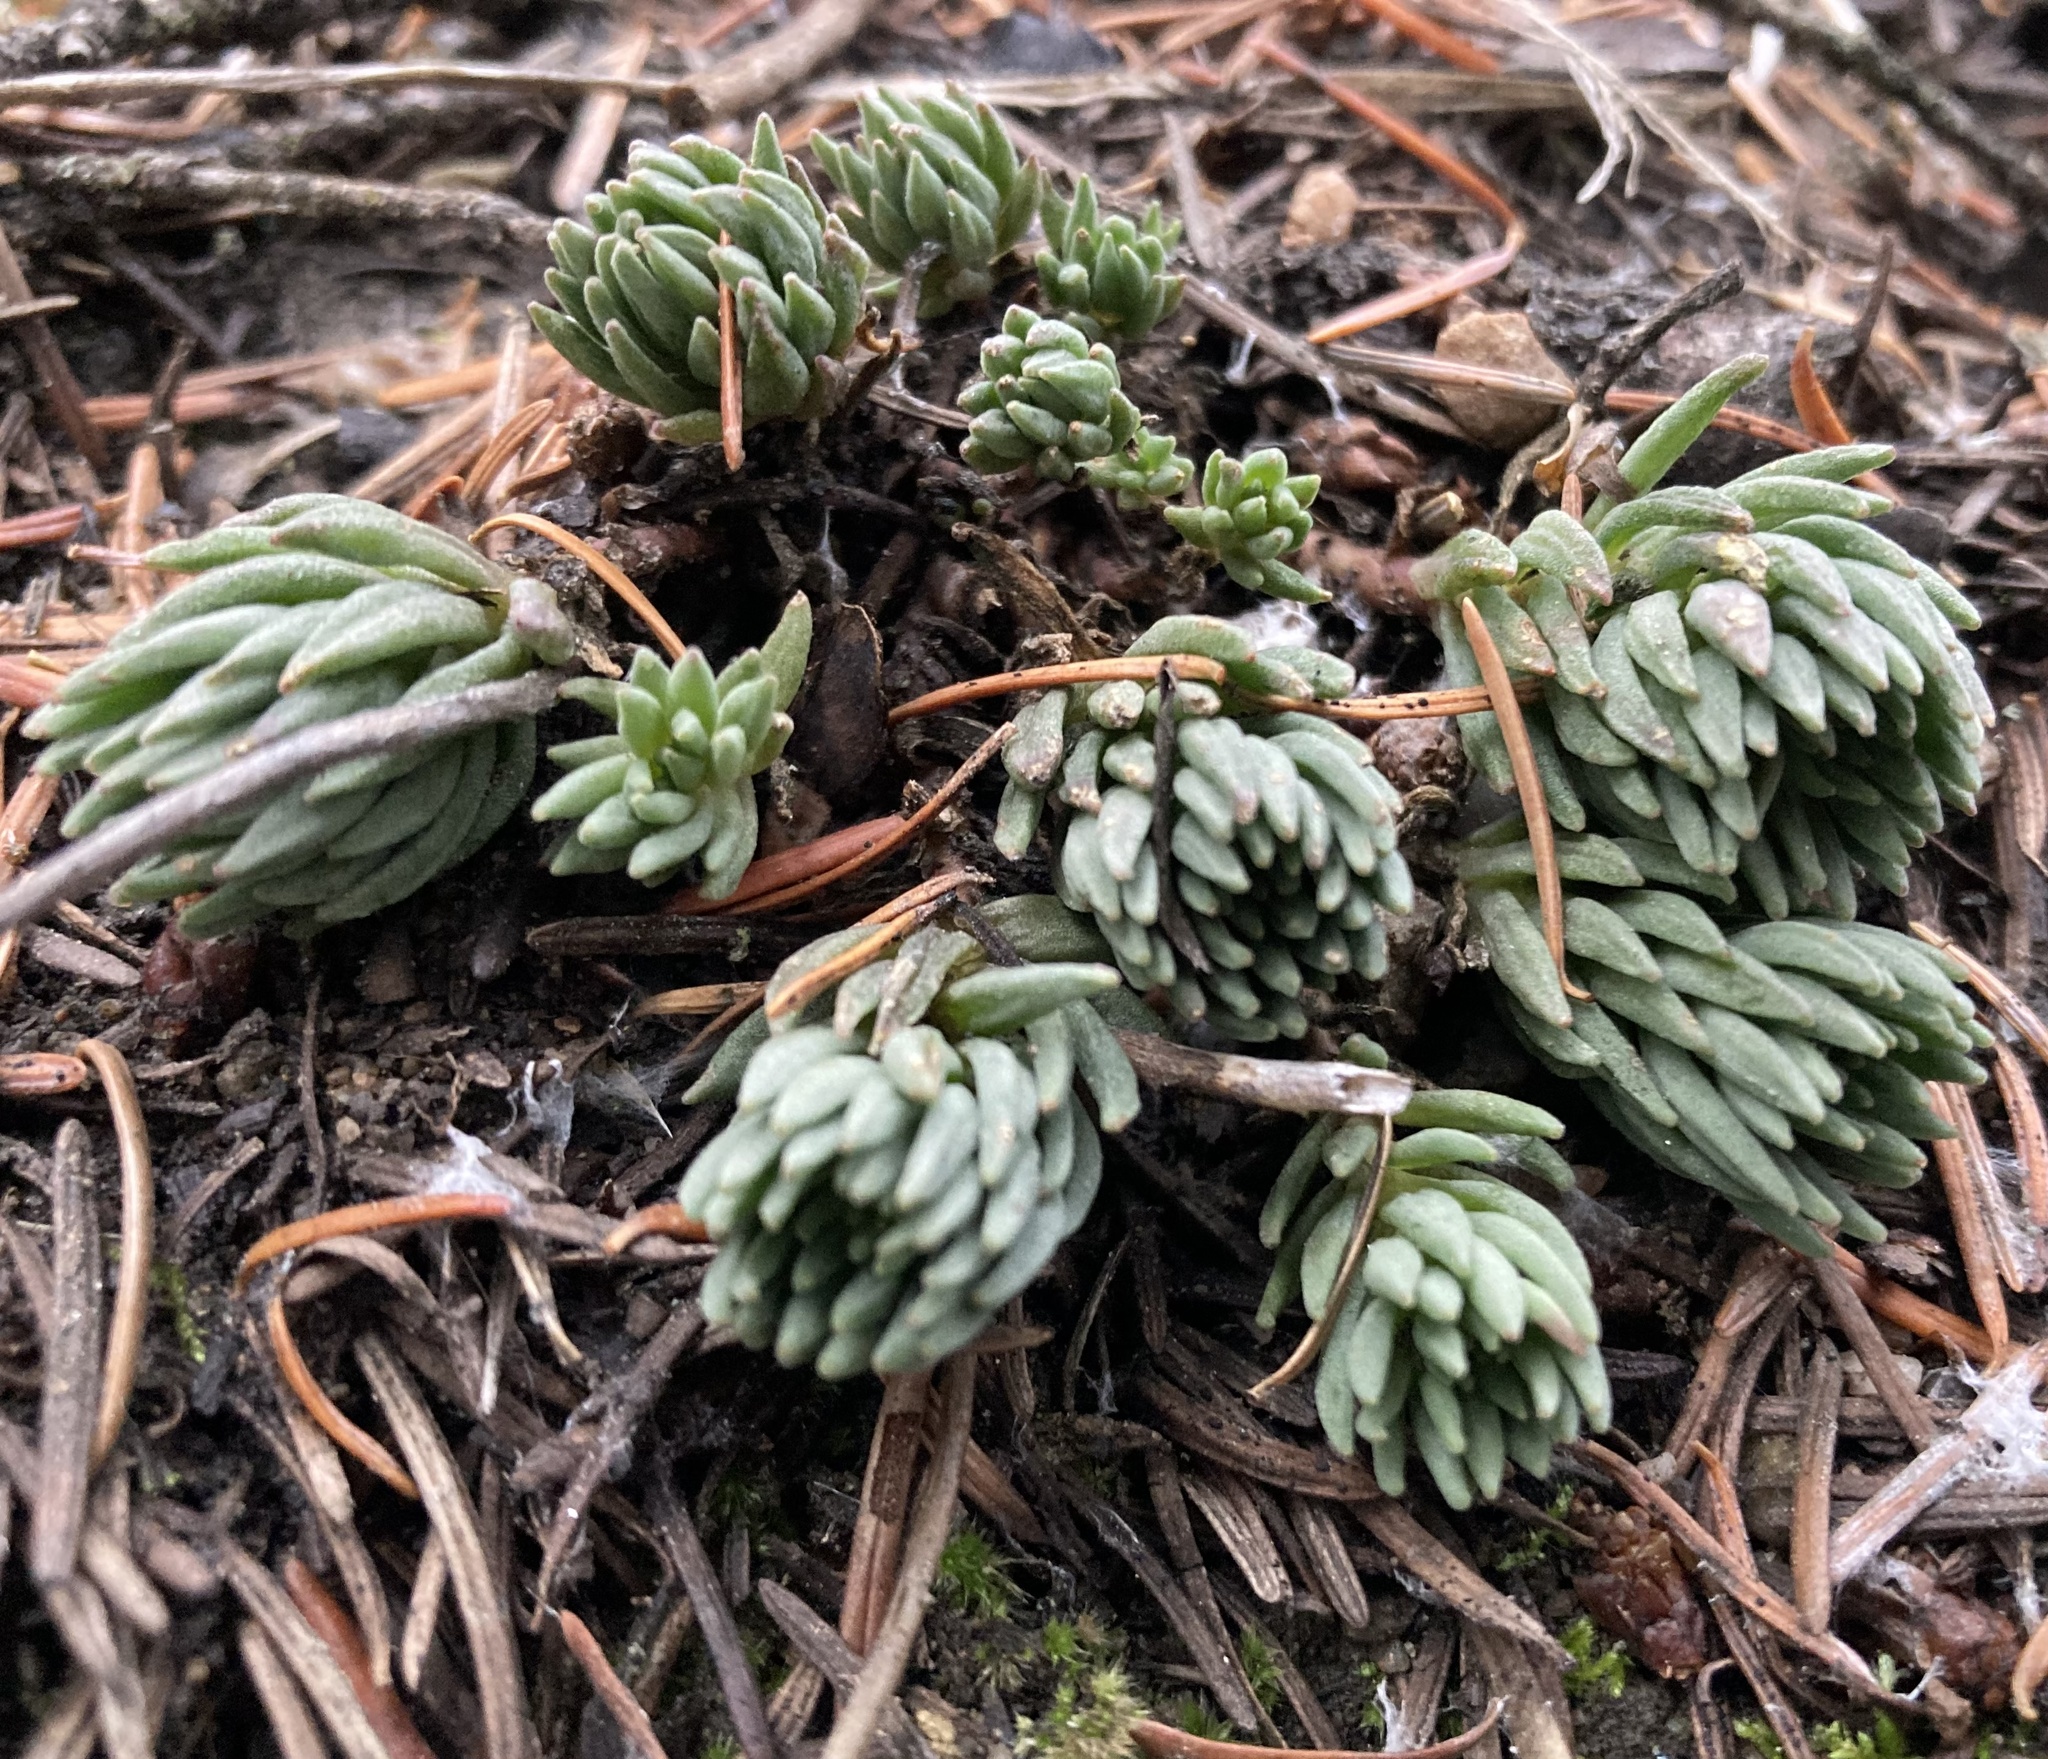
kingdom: Plantae
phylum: Tracheophyta
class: Magnoliopsida
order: Saxifragales
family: Crassulaceae
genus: Sedum
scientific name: Sedum lanceolatum
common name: Common stonecrop
